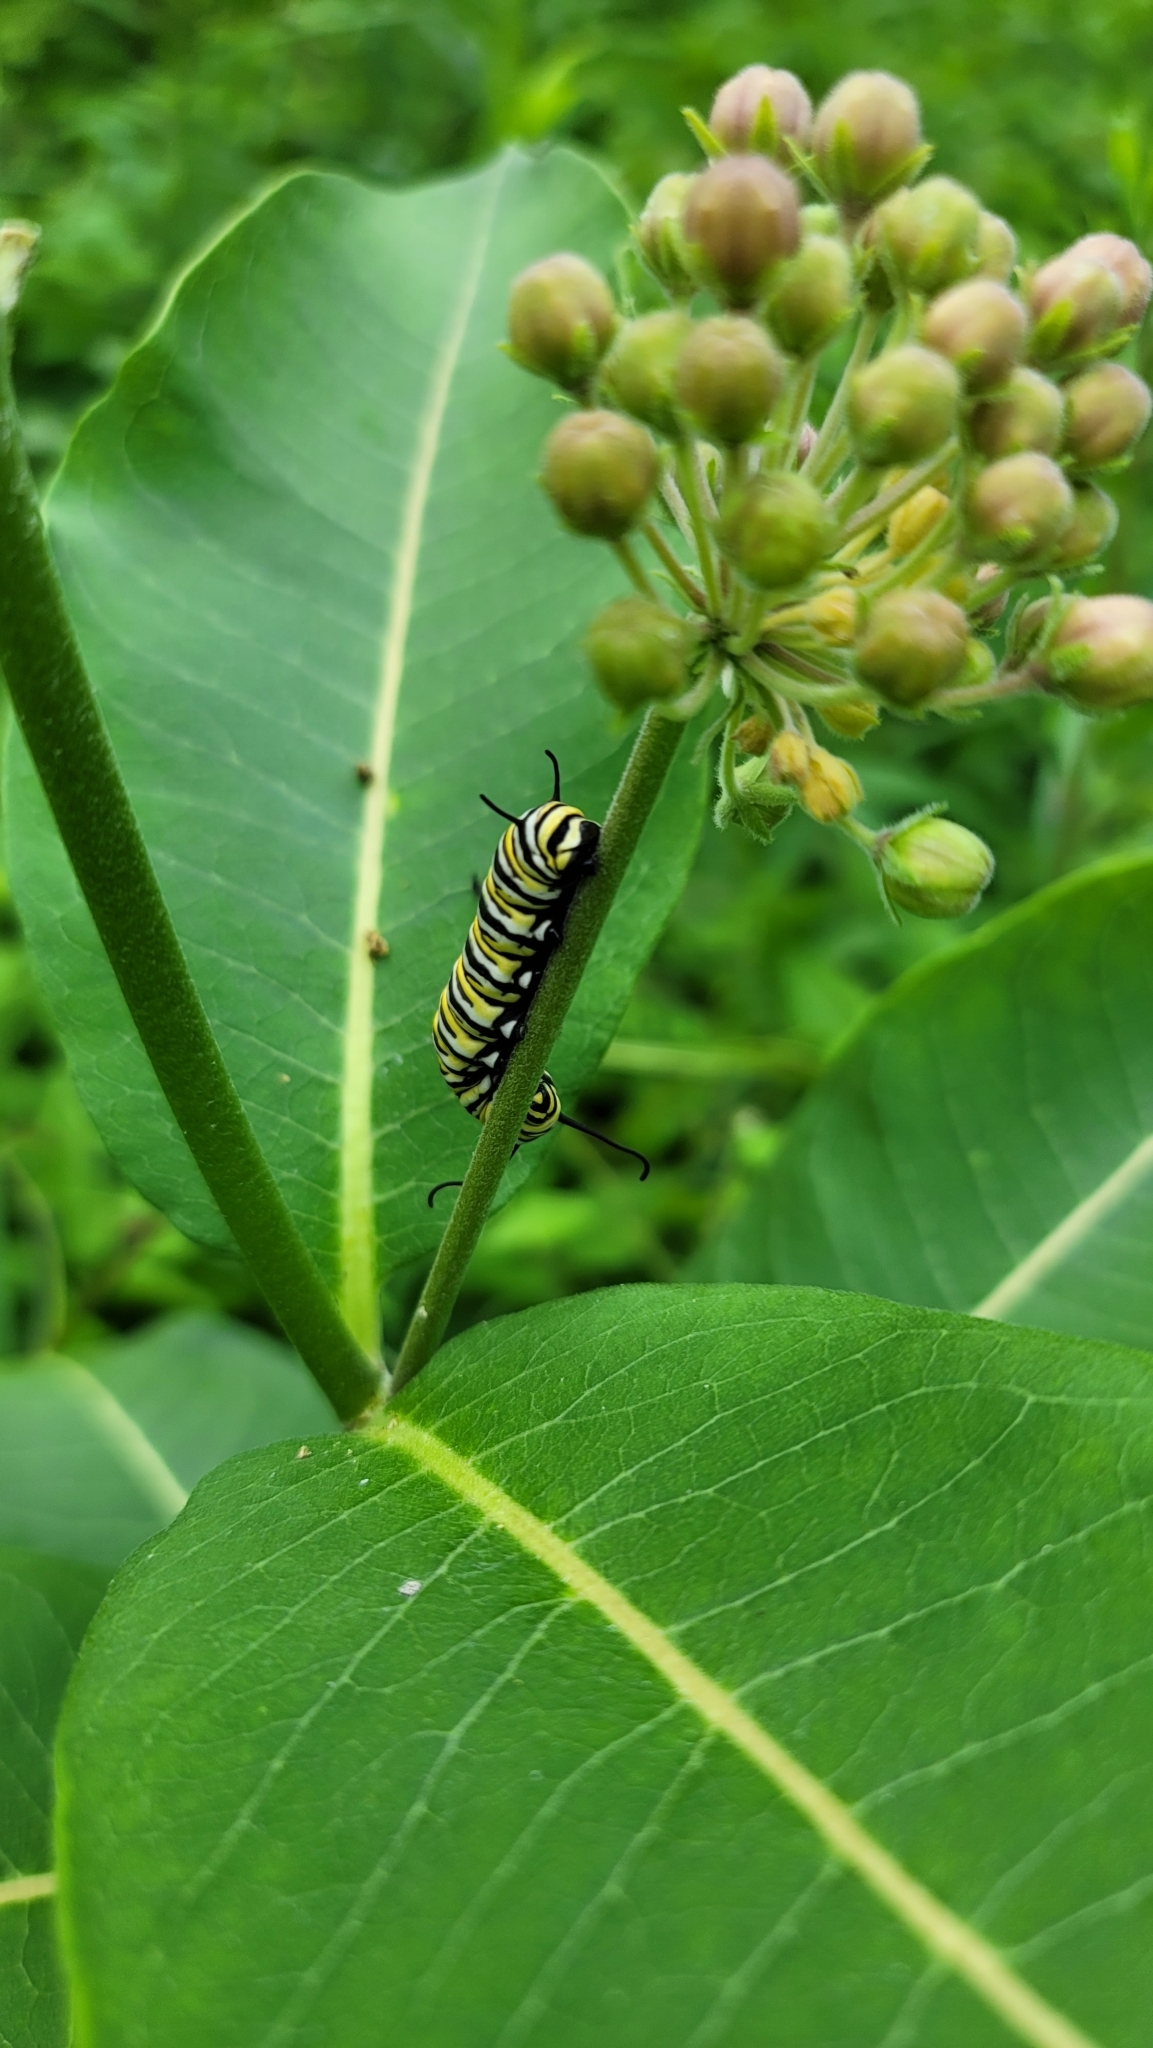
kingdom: Animalia
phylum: Arthropoda
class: Insecta
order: Lepidoptera
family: Nymphalidae
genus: Danaus
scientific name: Danaus plexippus
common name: Monarch
